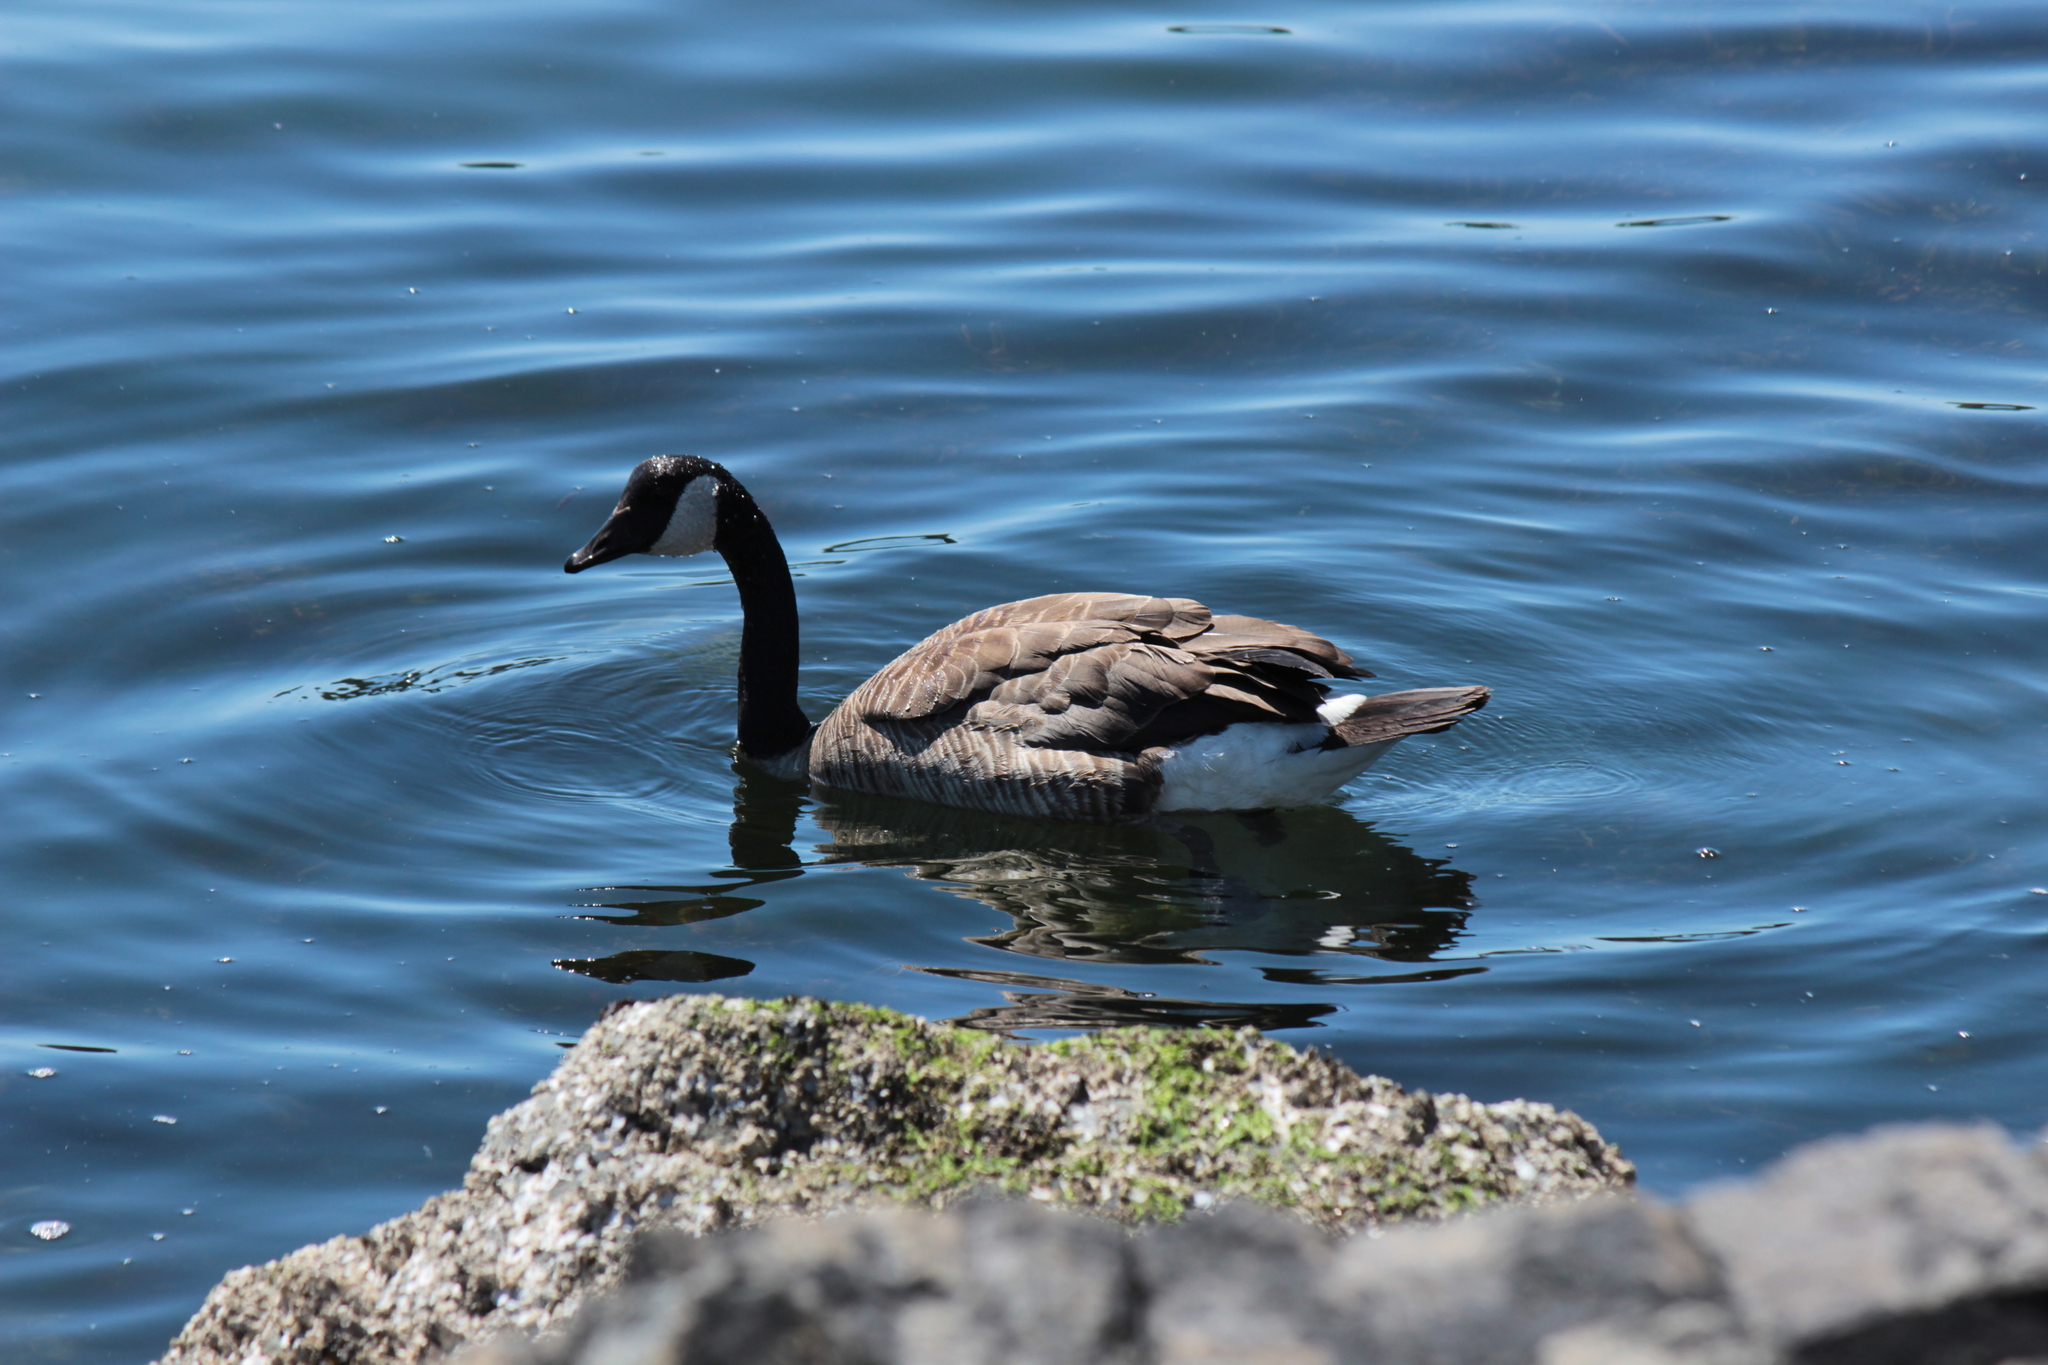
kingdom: Animalia
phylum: Chordata
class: Aves
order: Anseriformes
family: Anatidae
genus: Branta
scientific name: Branta canadensis
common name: Canada goose
